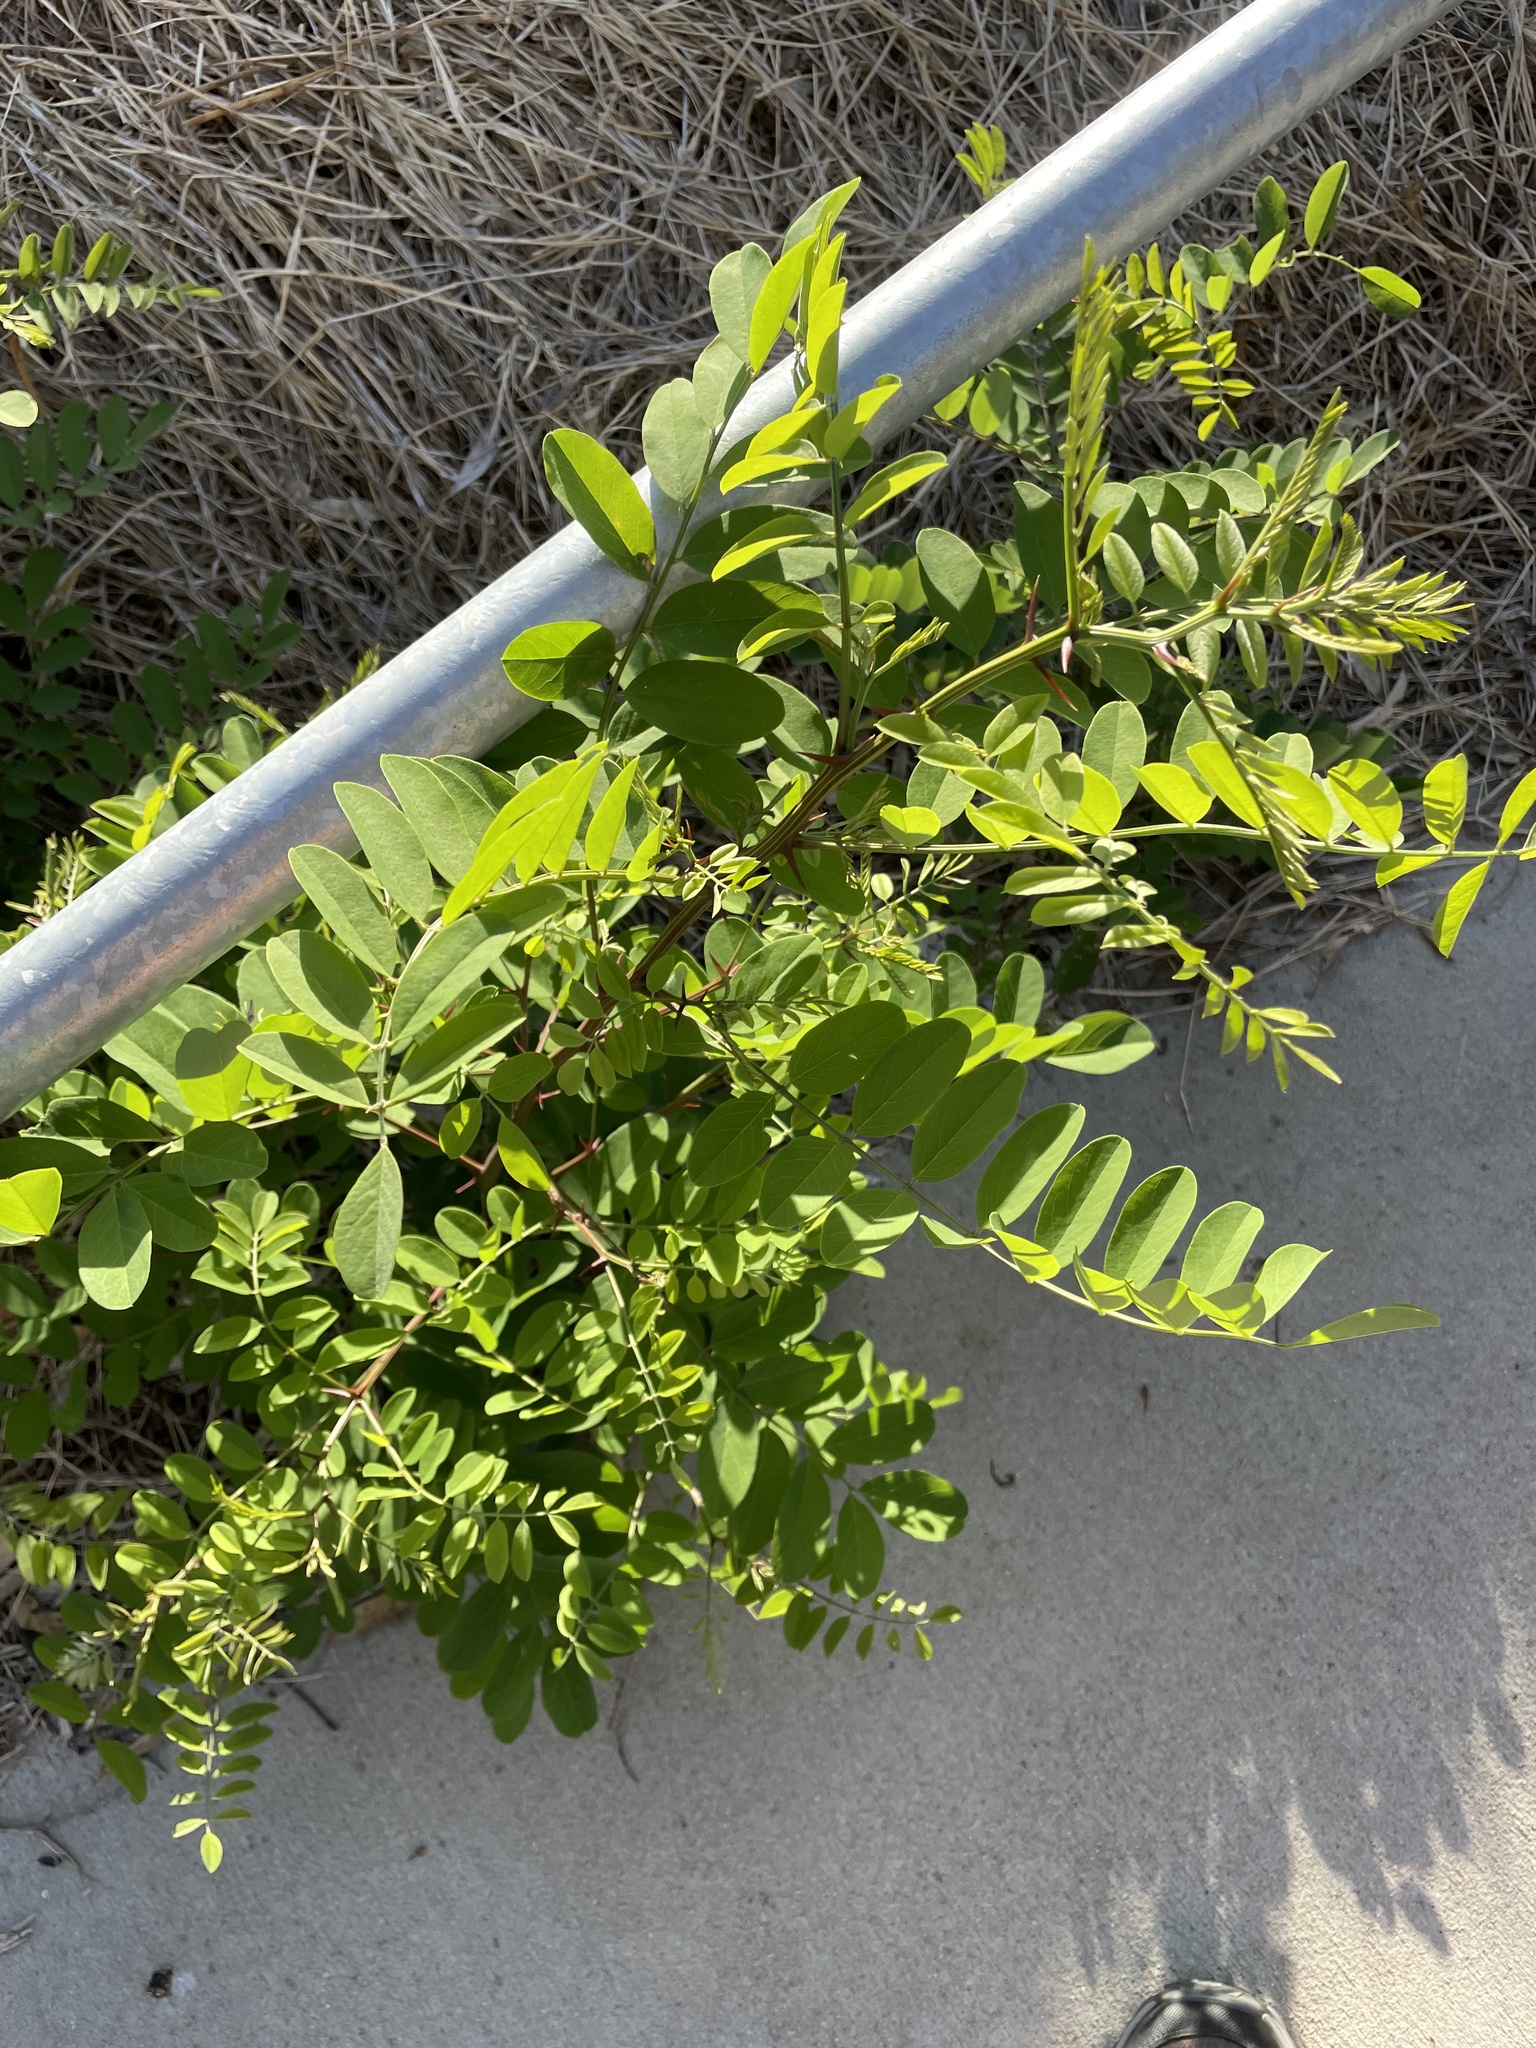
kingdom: Plantae
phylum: Tracheophyta
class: Magnoliopsida
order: Fabales
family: Fabaceae
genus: Robinia
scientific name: Robinia pseudoacacia
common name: Black locust
